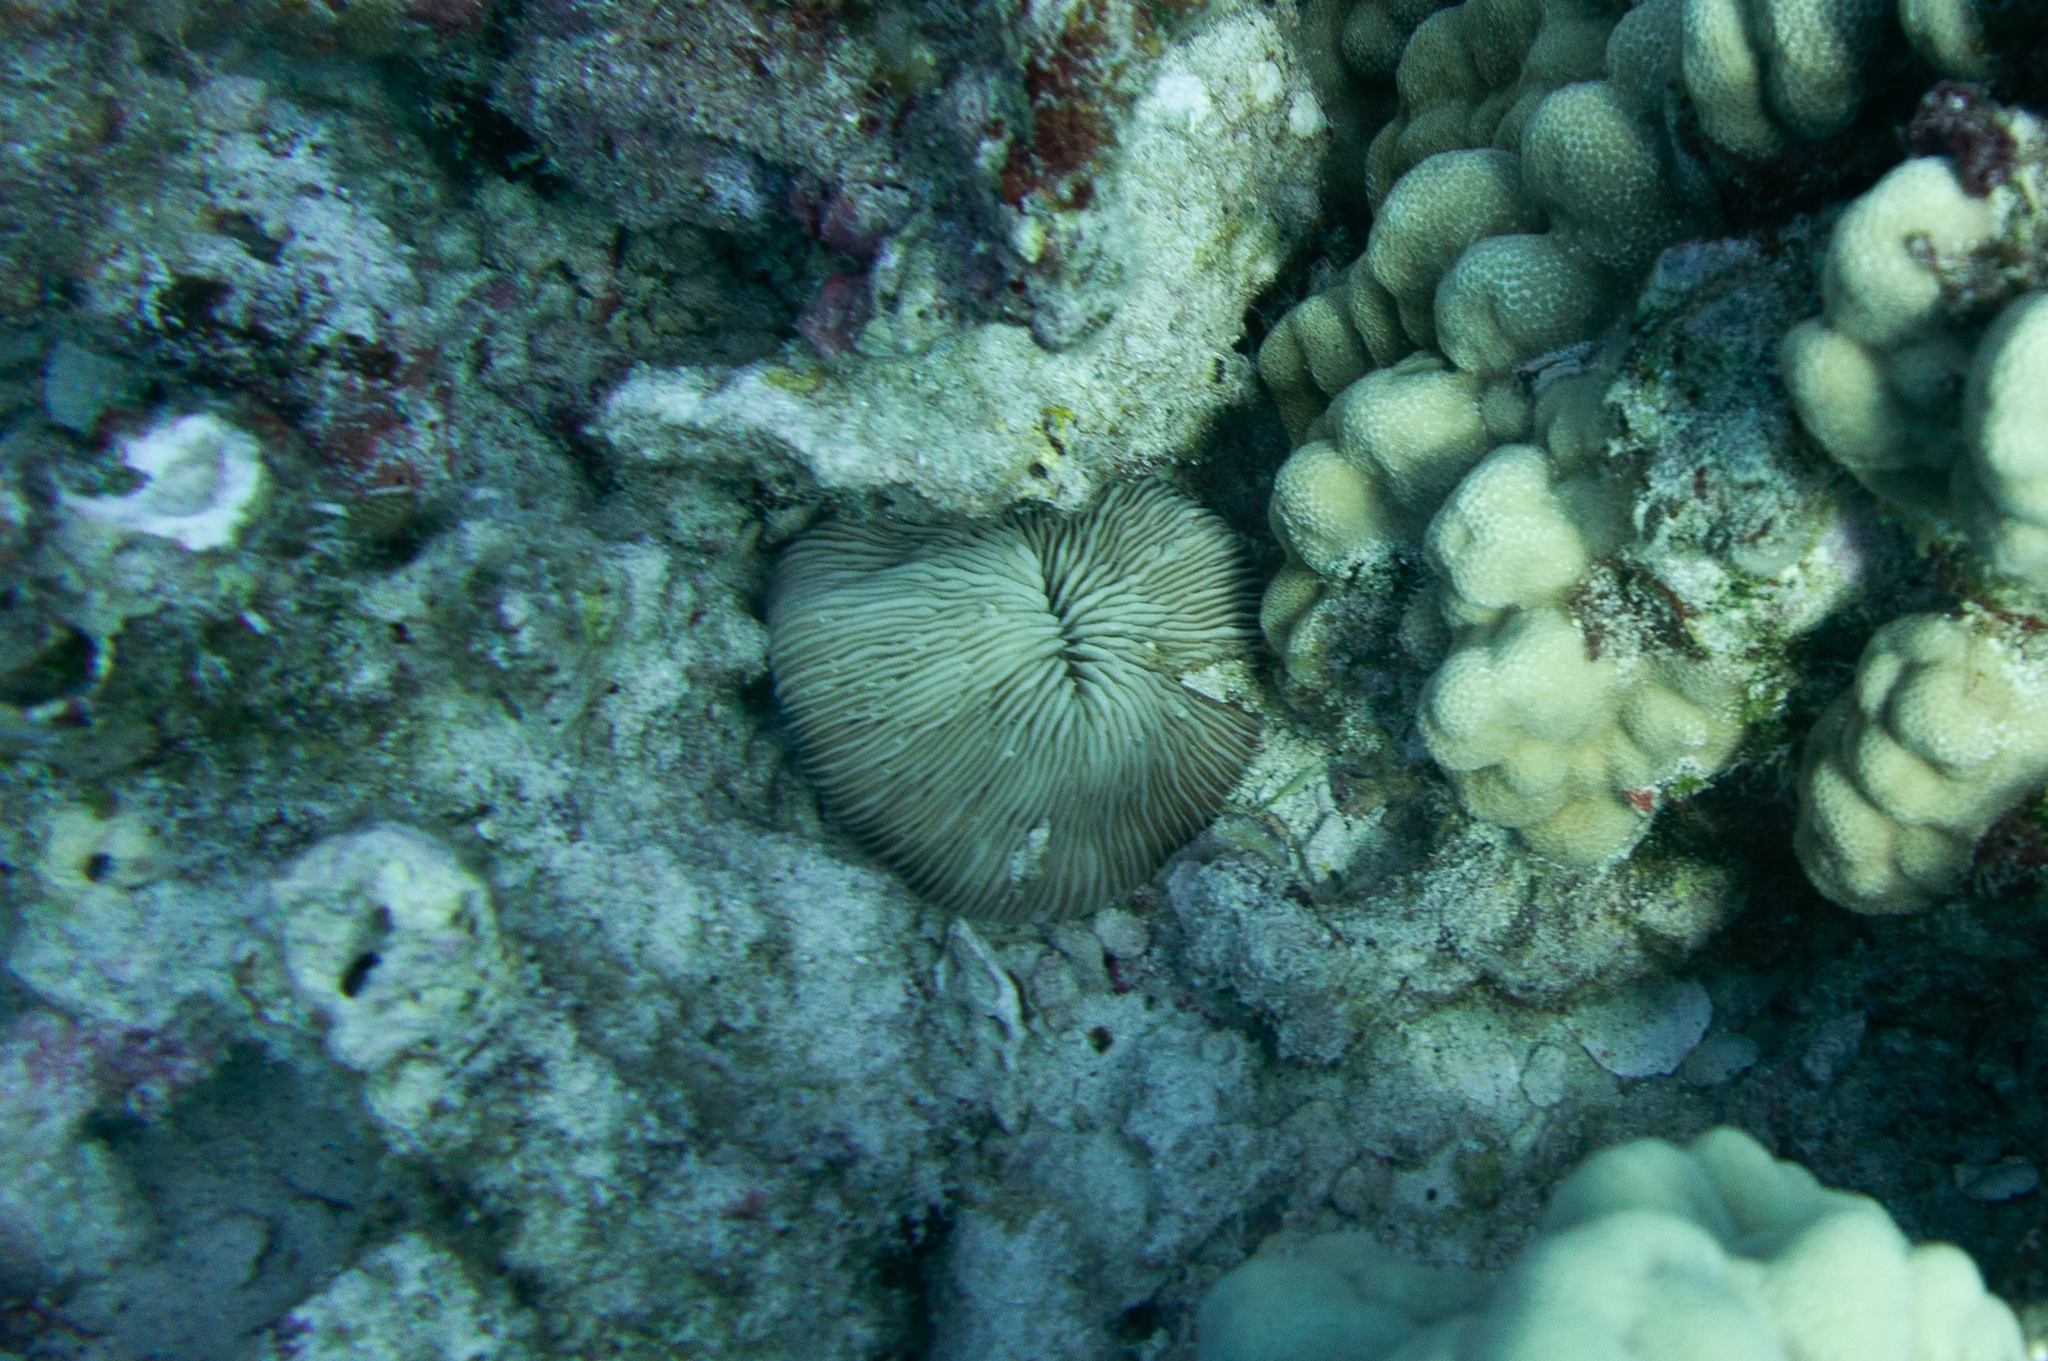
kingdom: Animalia
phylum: Cnidaria
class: Anthozoa
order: Scleractinia
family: Fungiidae
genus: Pleuractis
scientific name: Pleuractis granulosa
